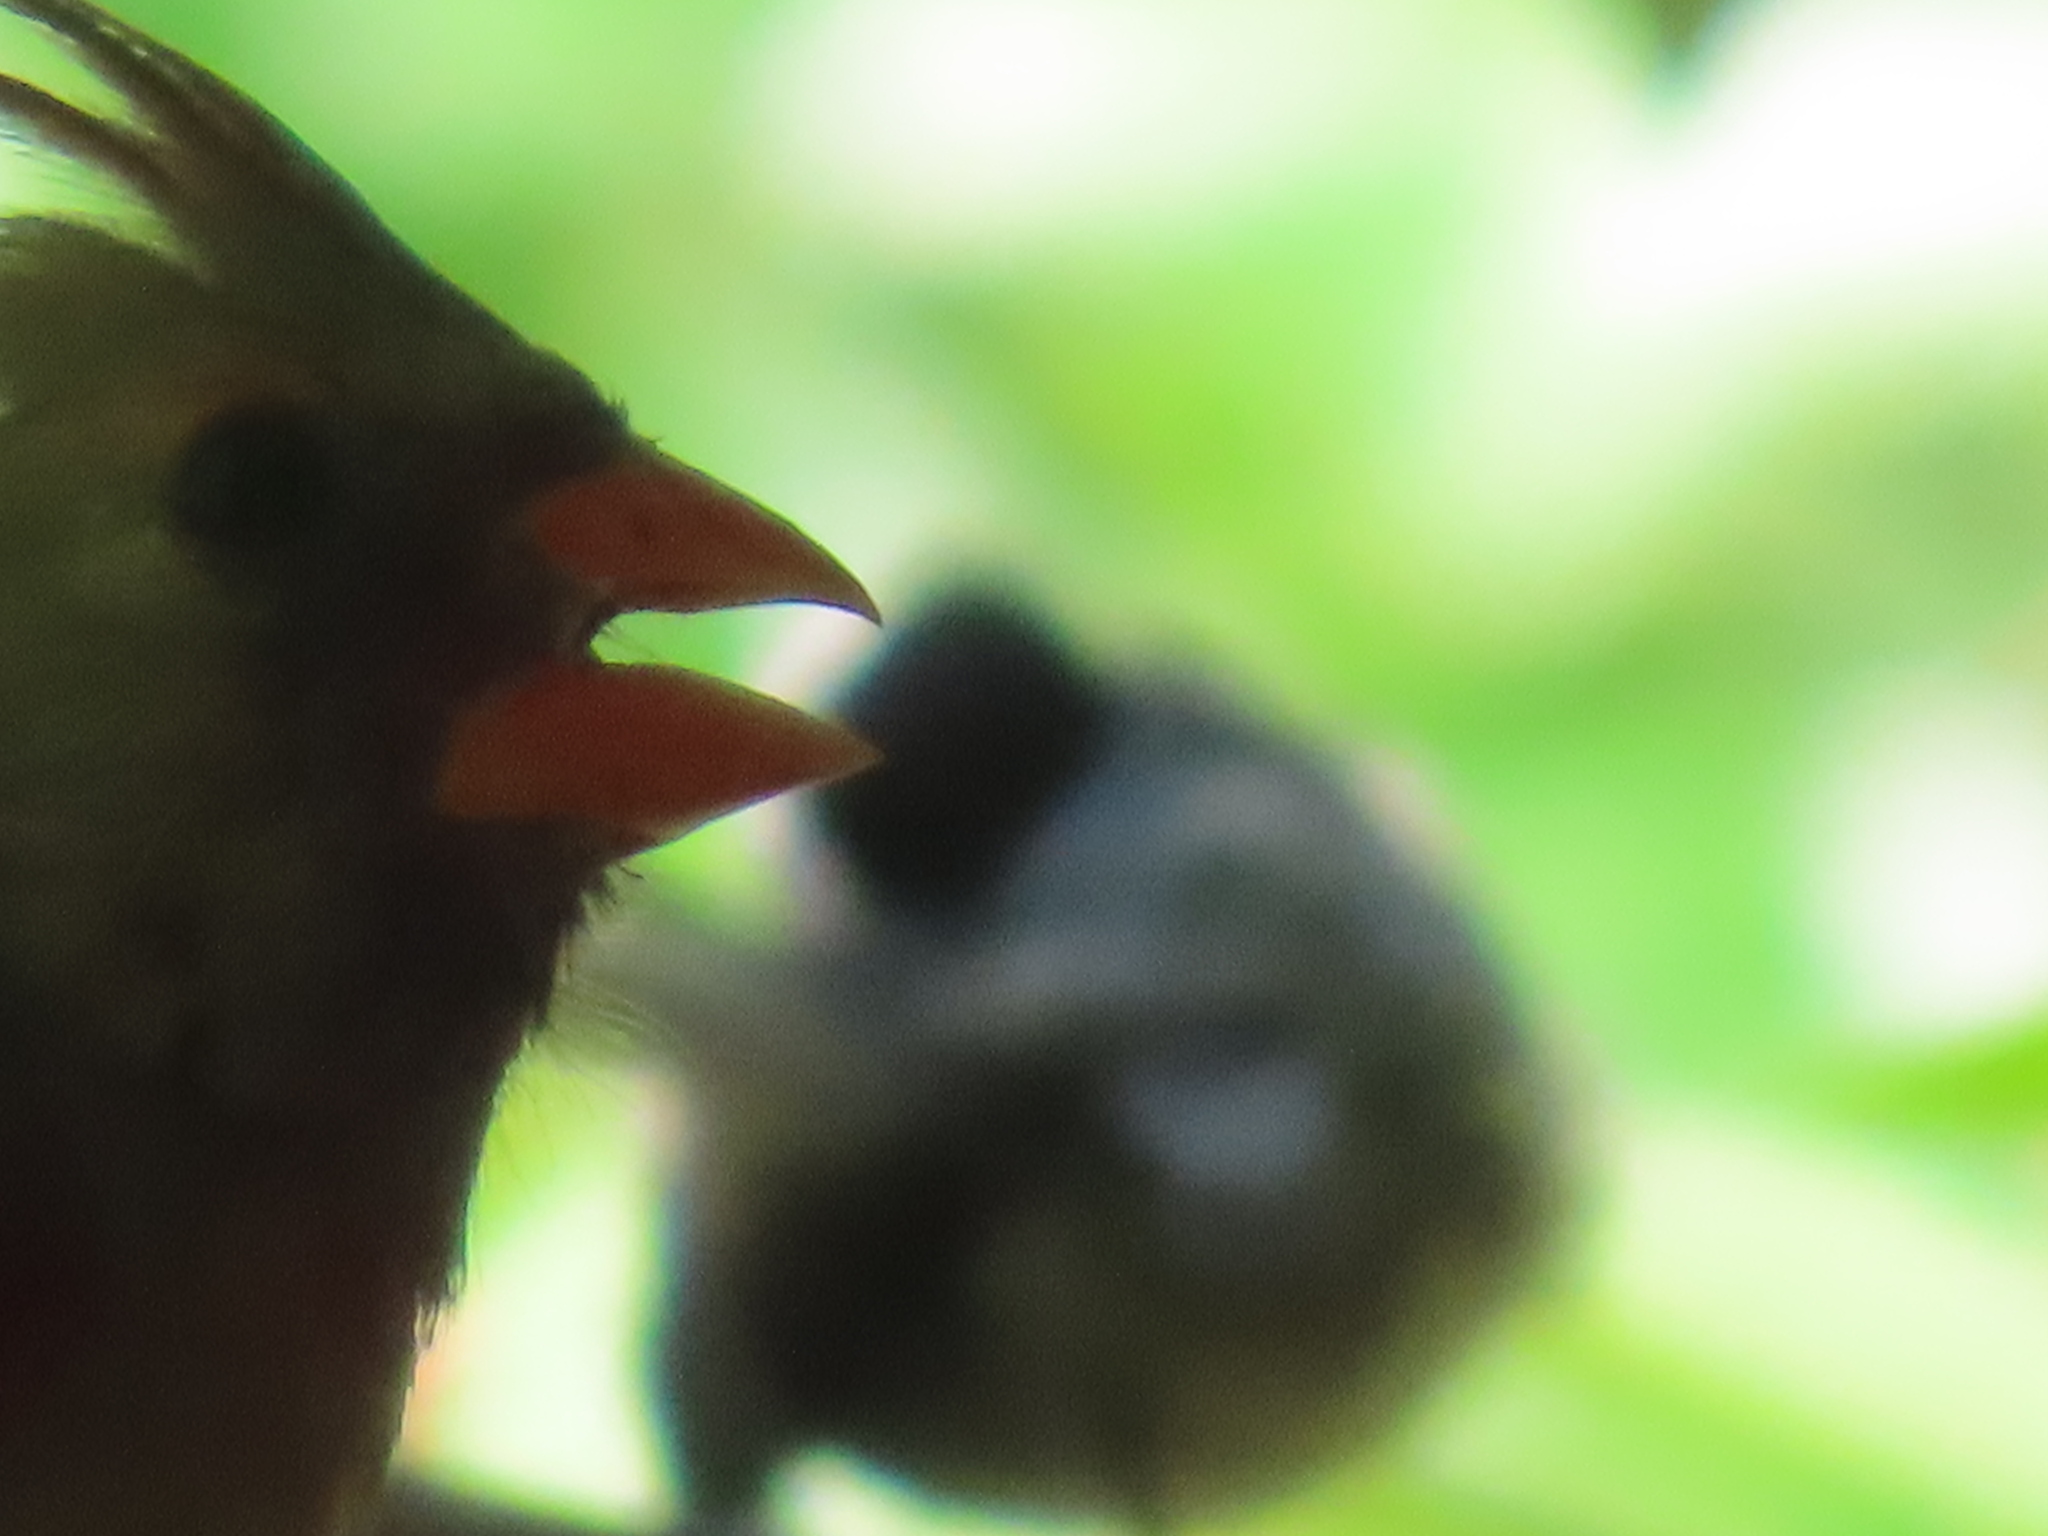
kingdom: Animalia
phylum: Chordata
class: Aves
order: Passeriformes
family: Cardinalidae
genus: Cardinalis
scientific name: Cardinalis cardinalis
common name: Northern cardinal
